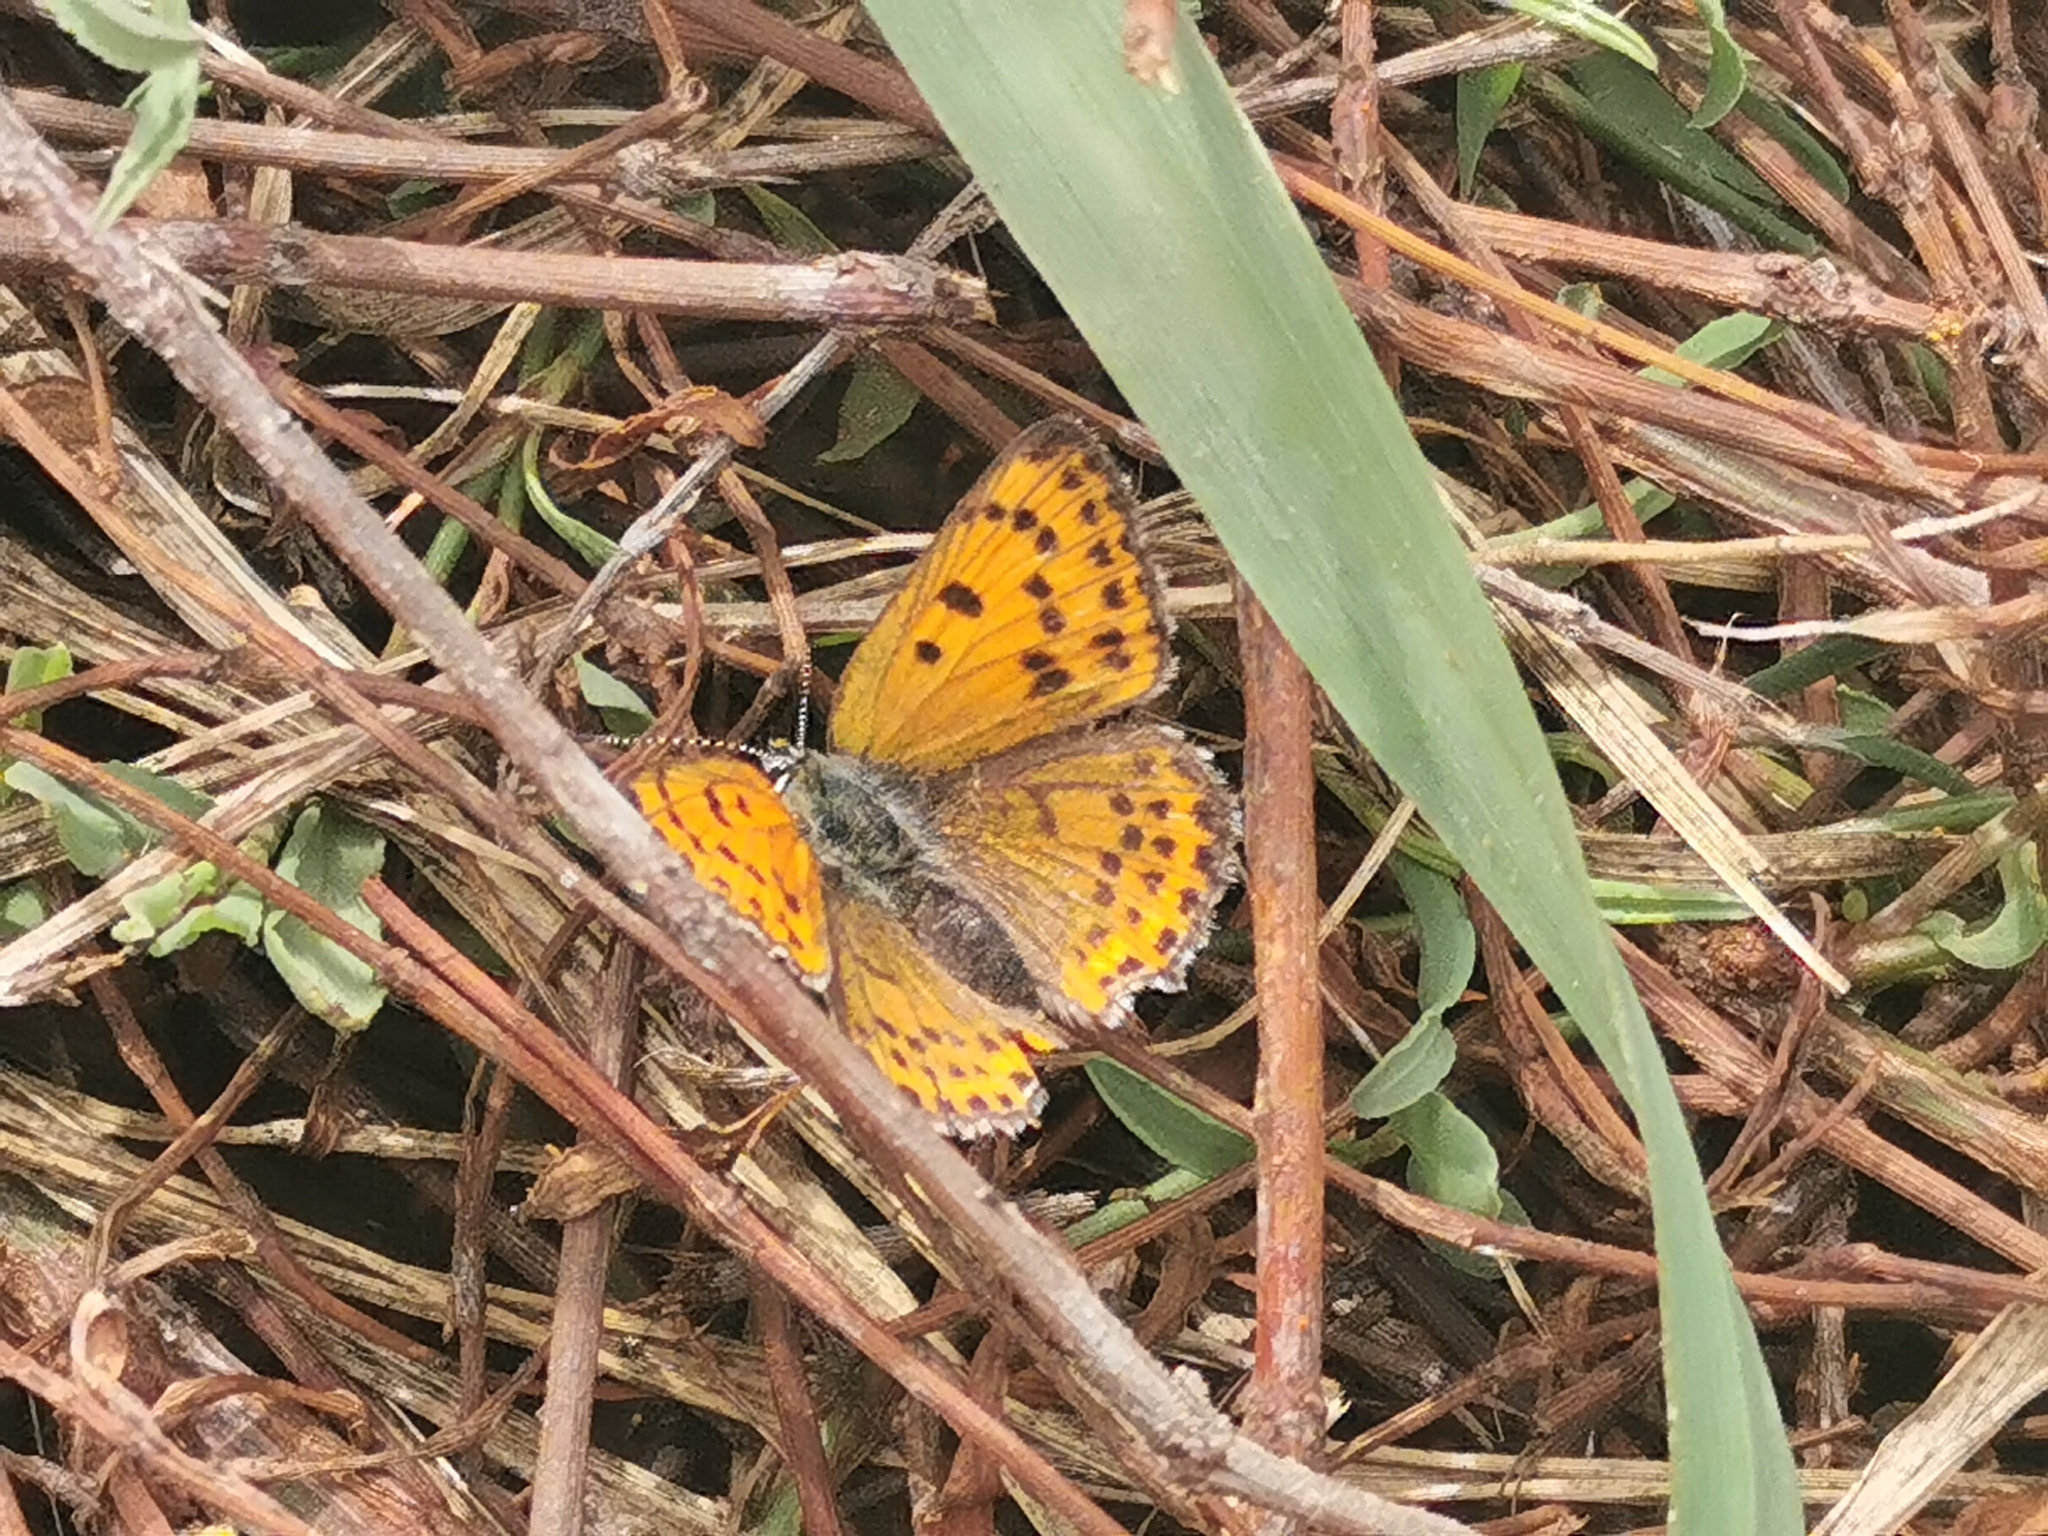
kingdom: Animalia
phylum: Arthropoda
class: Insecta
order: Lepidoptera
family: Lycaenidae
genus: Thersamonia
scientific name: Thersamonia thersamon
